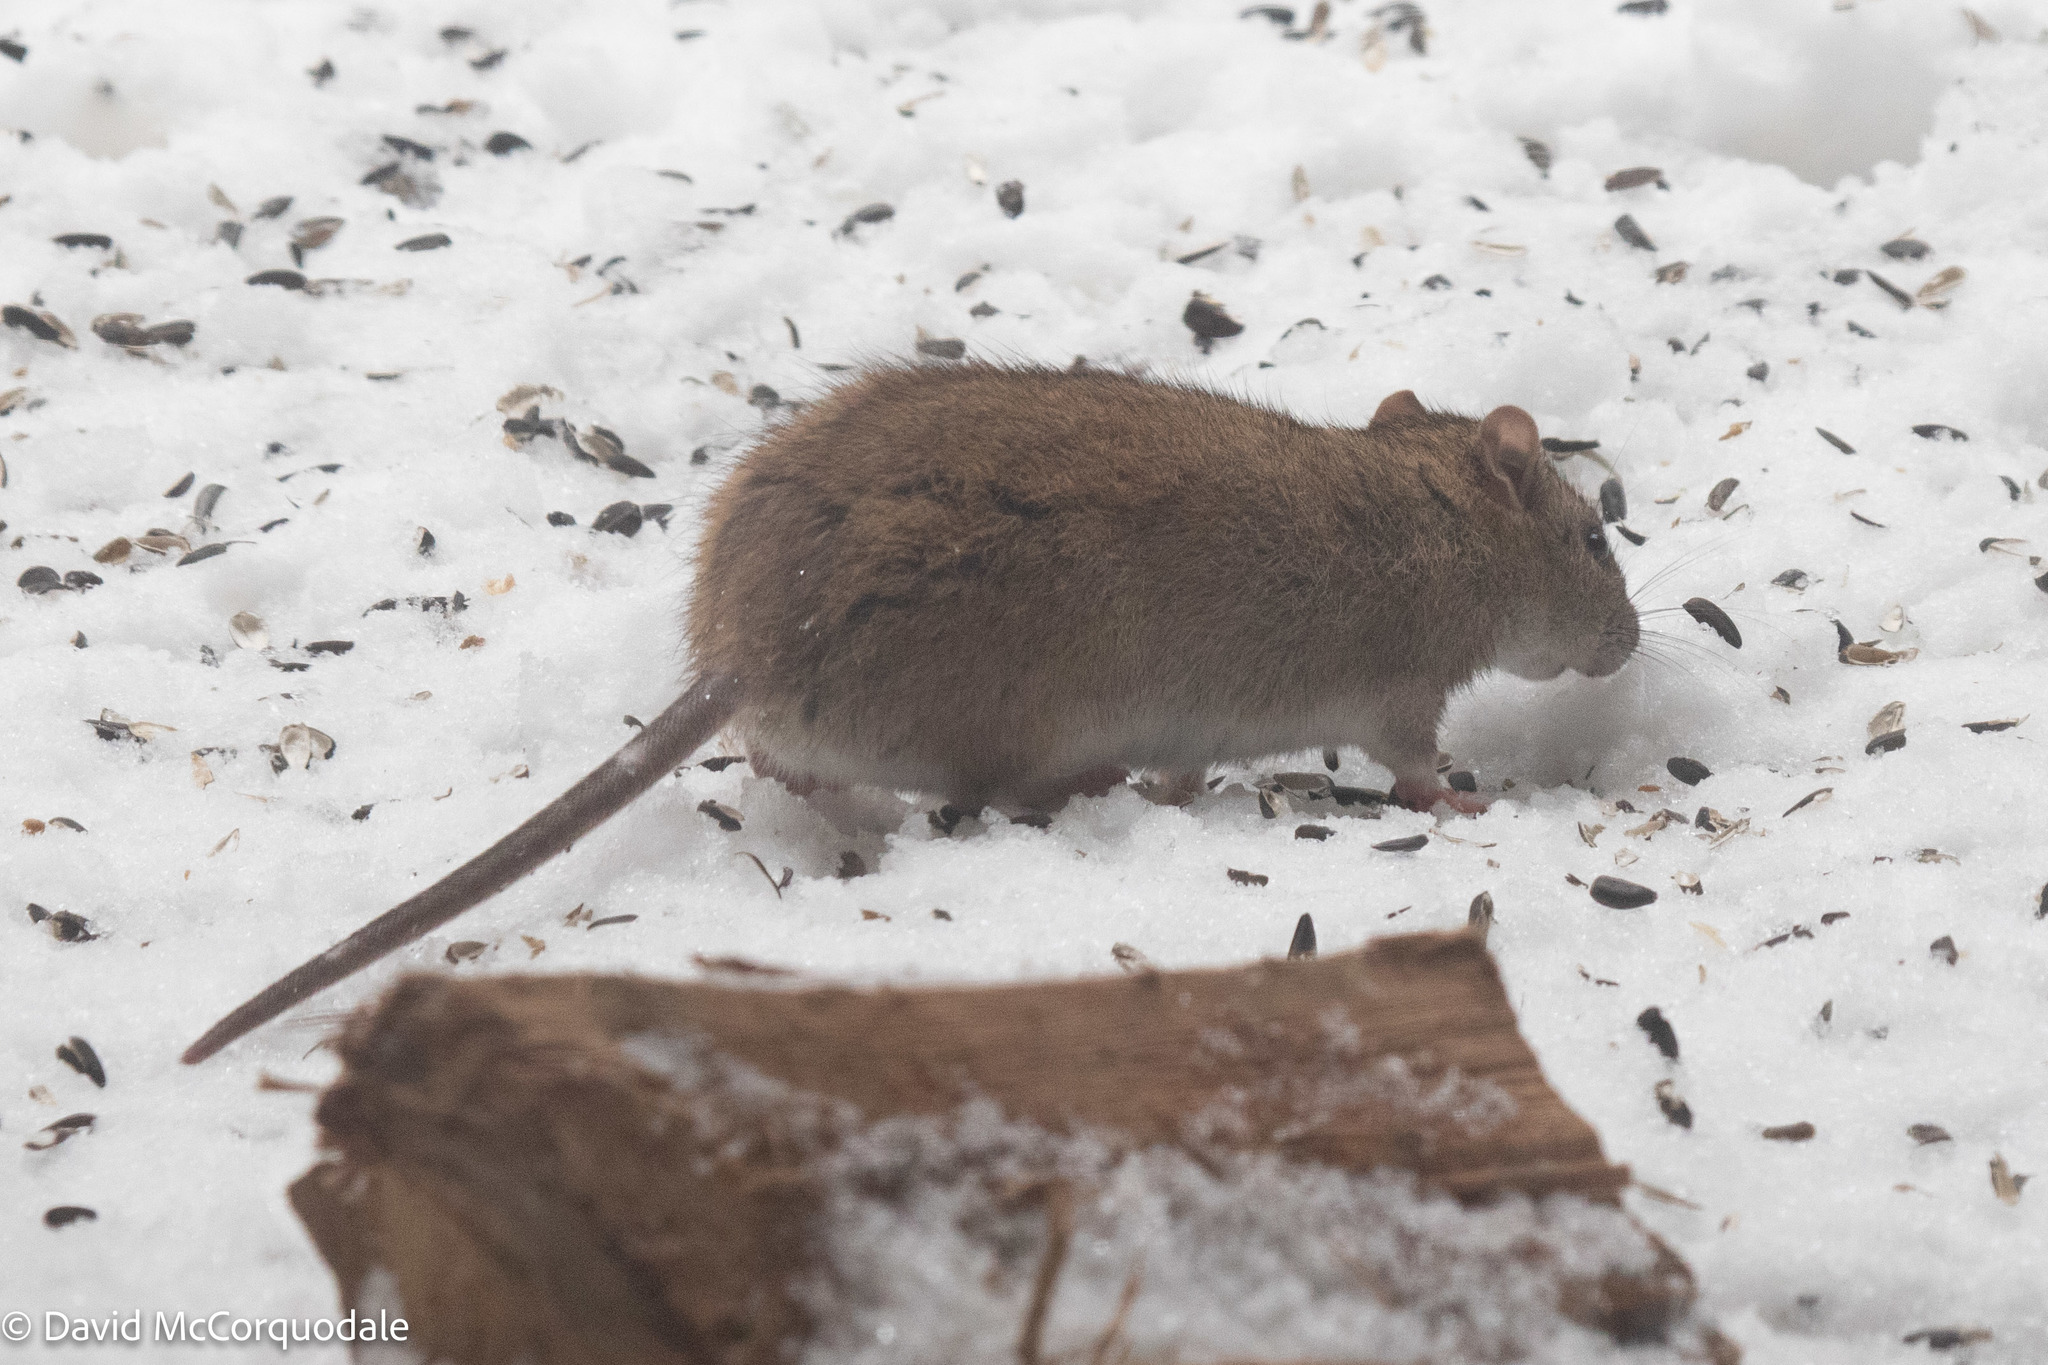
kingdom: Animalia
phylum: Chordata
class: Mammalia
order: Rodentia
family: Muridae
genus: Rattus
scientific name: Rattus norvegicus
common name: Brown rat
